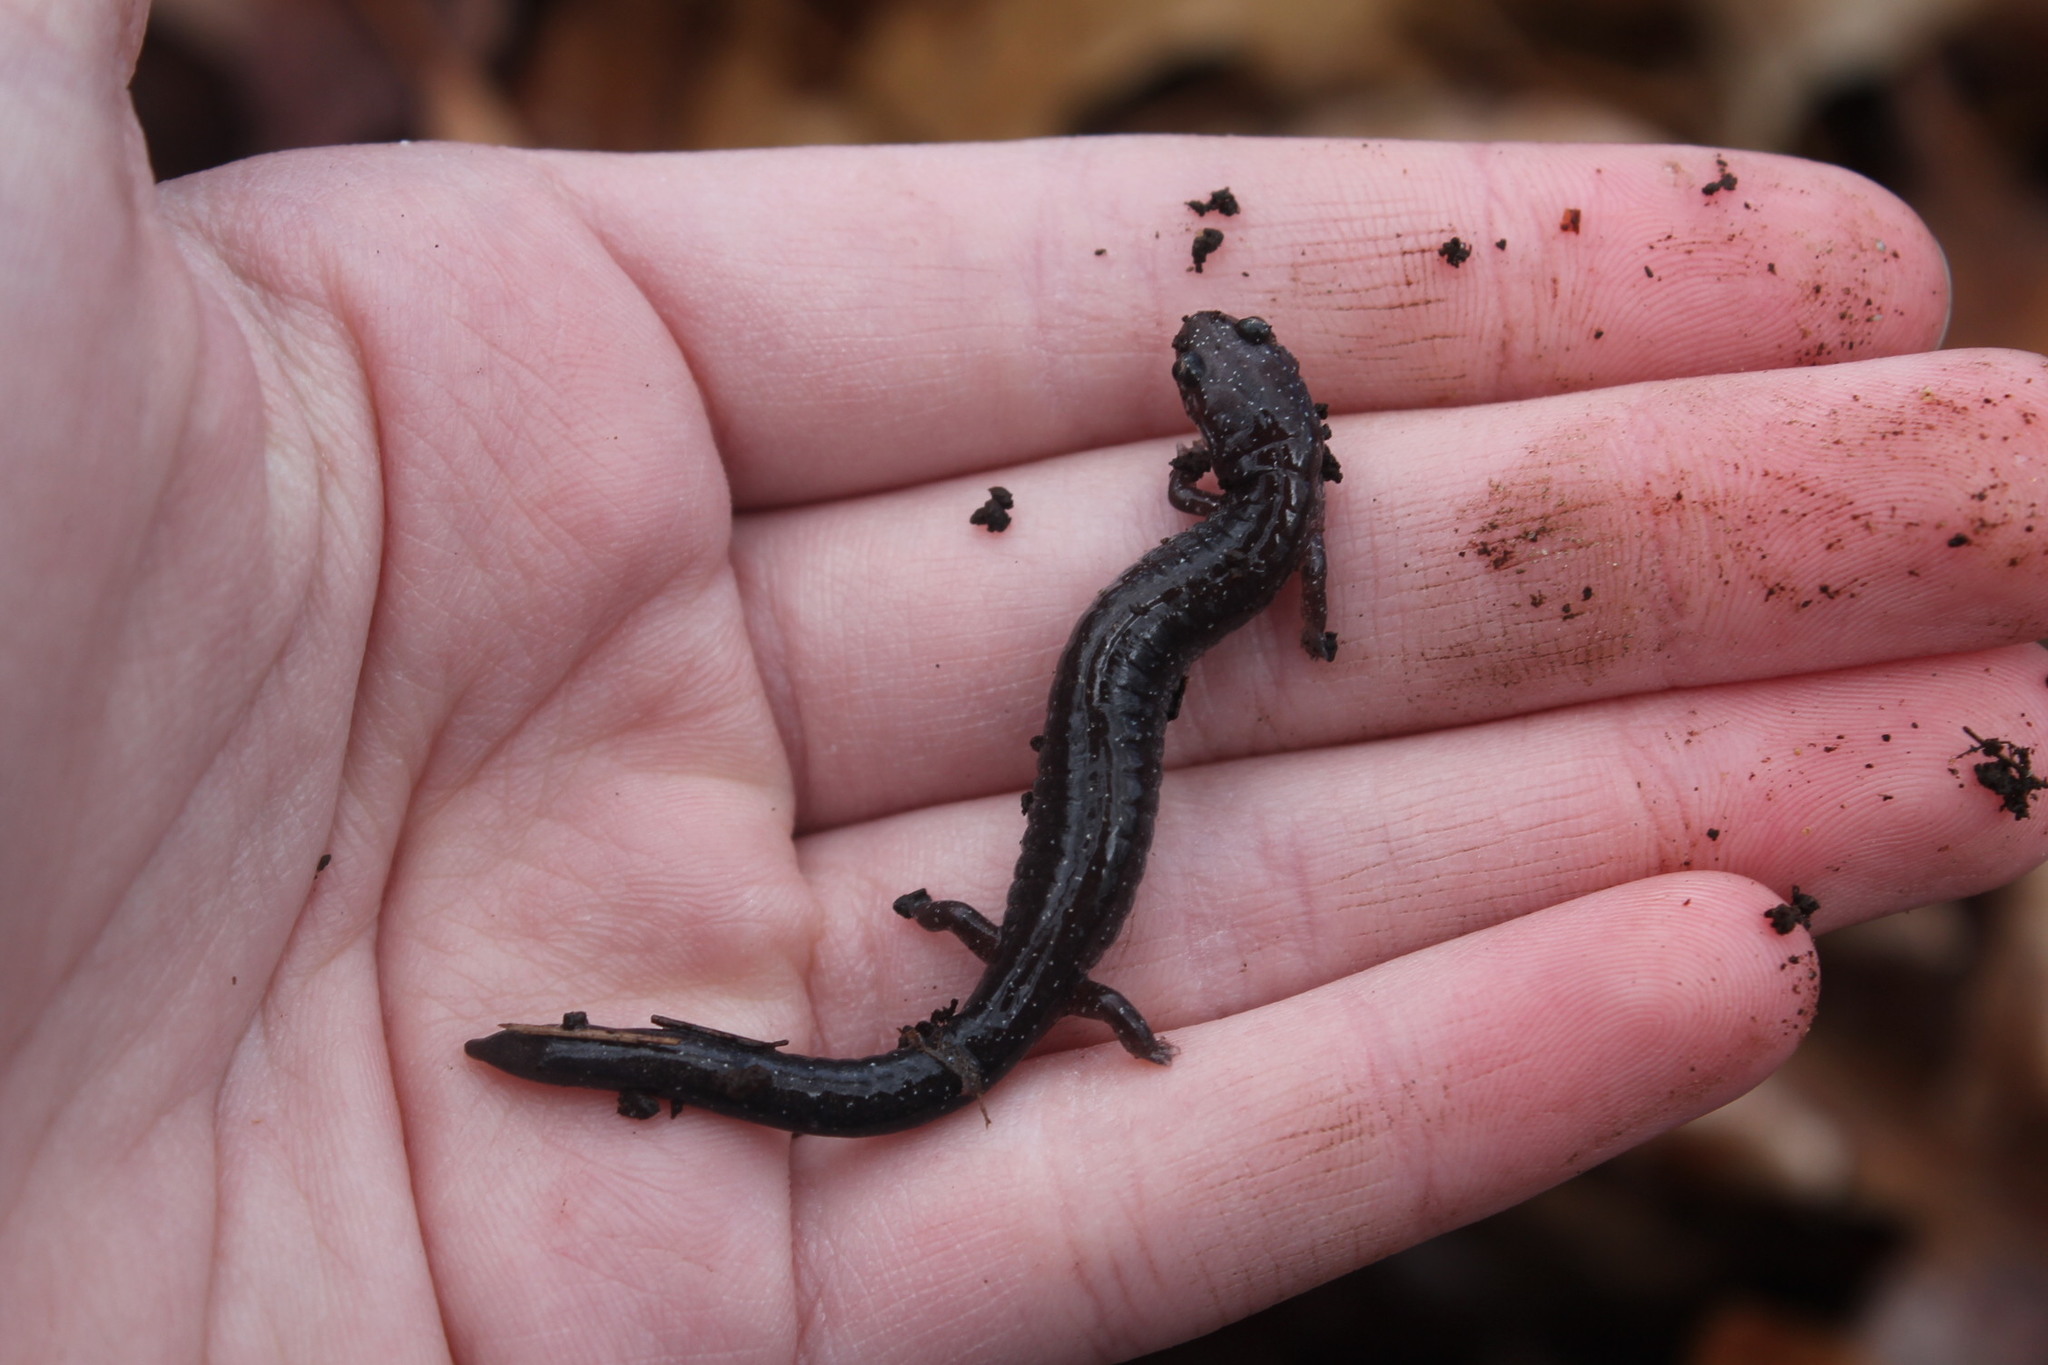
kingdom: Animalia
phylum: Chordata
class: Amphibia
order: Caudata
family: Plethodontidae
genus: Plethodon
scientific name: Plethodon cinereus
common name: Redback salamander
